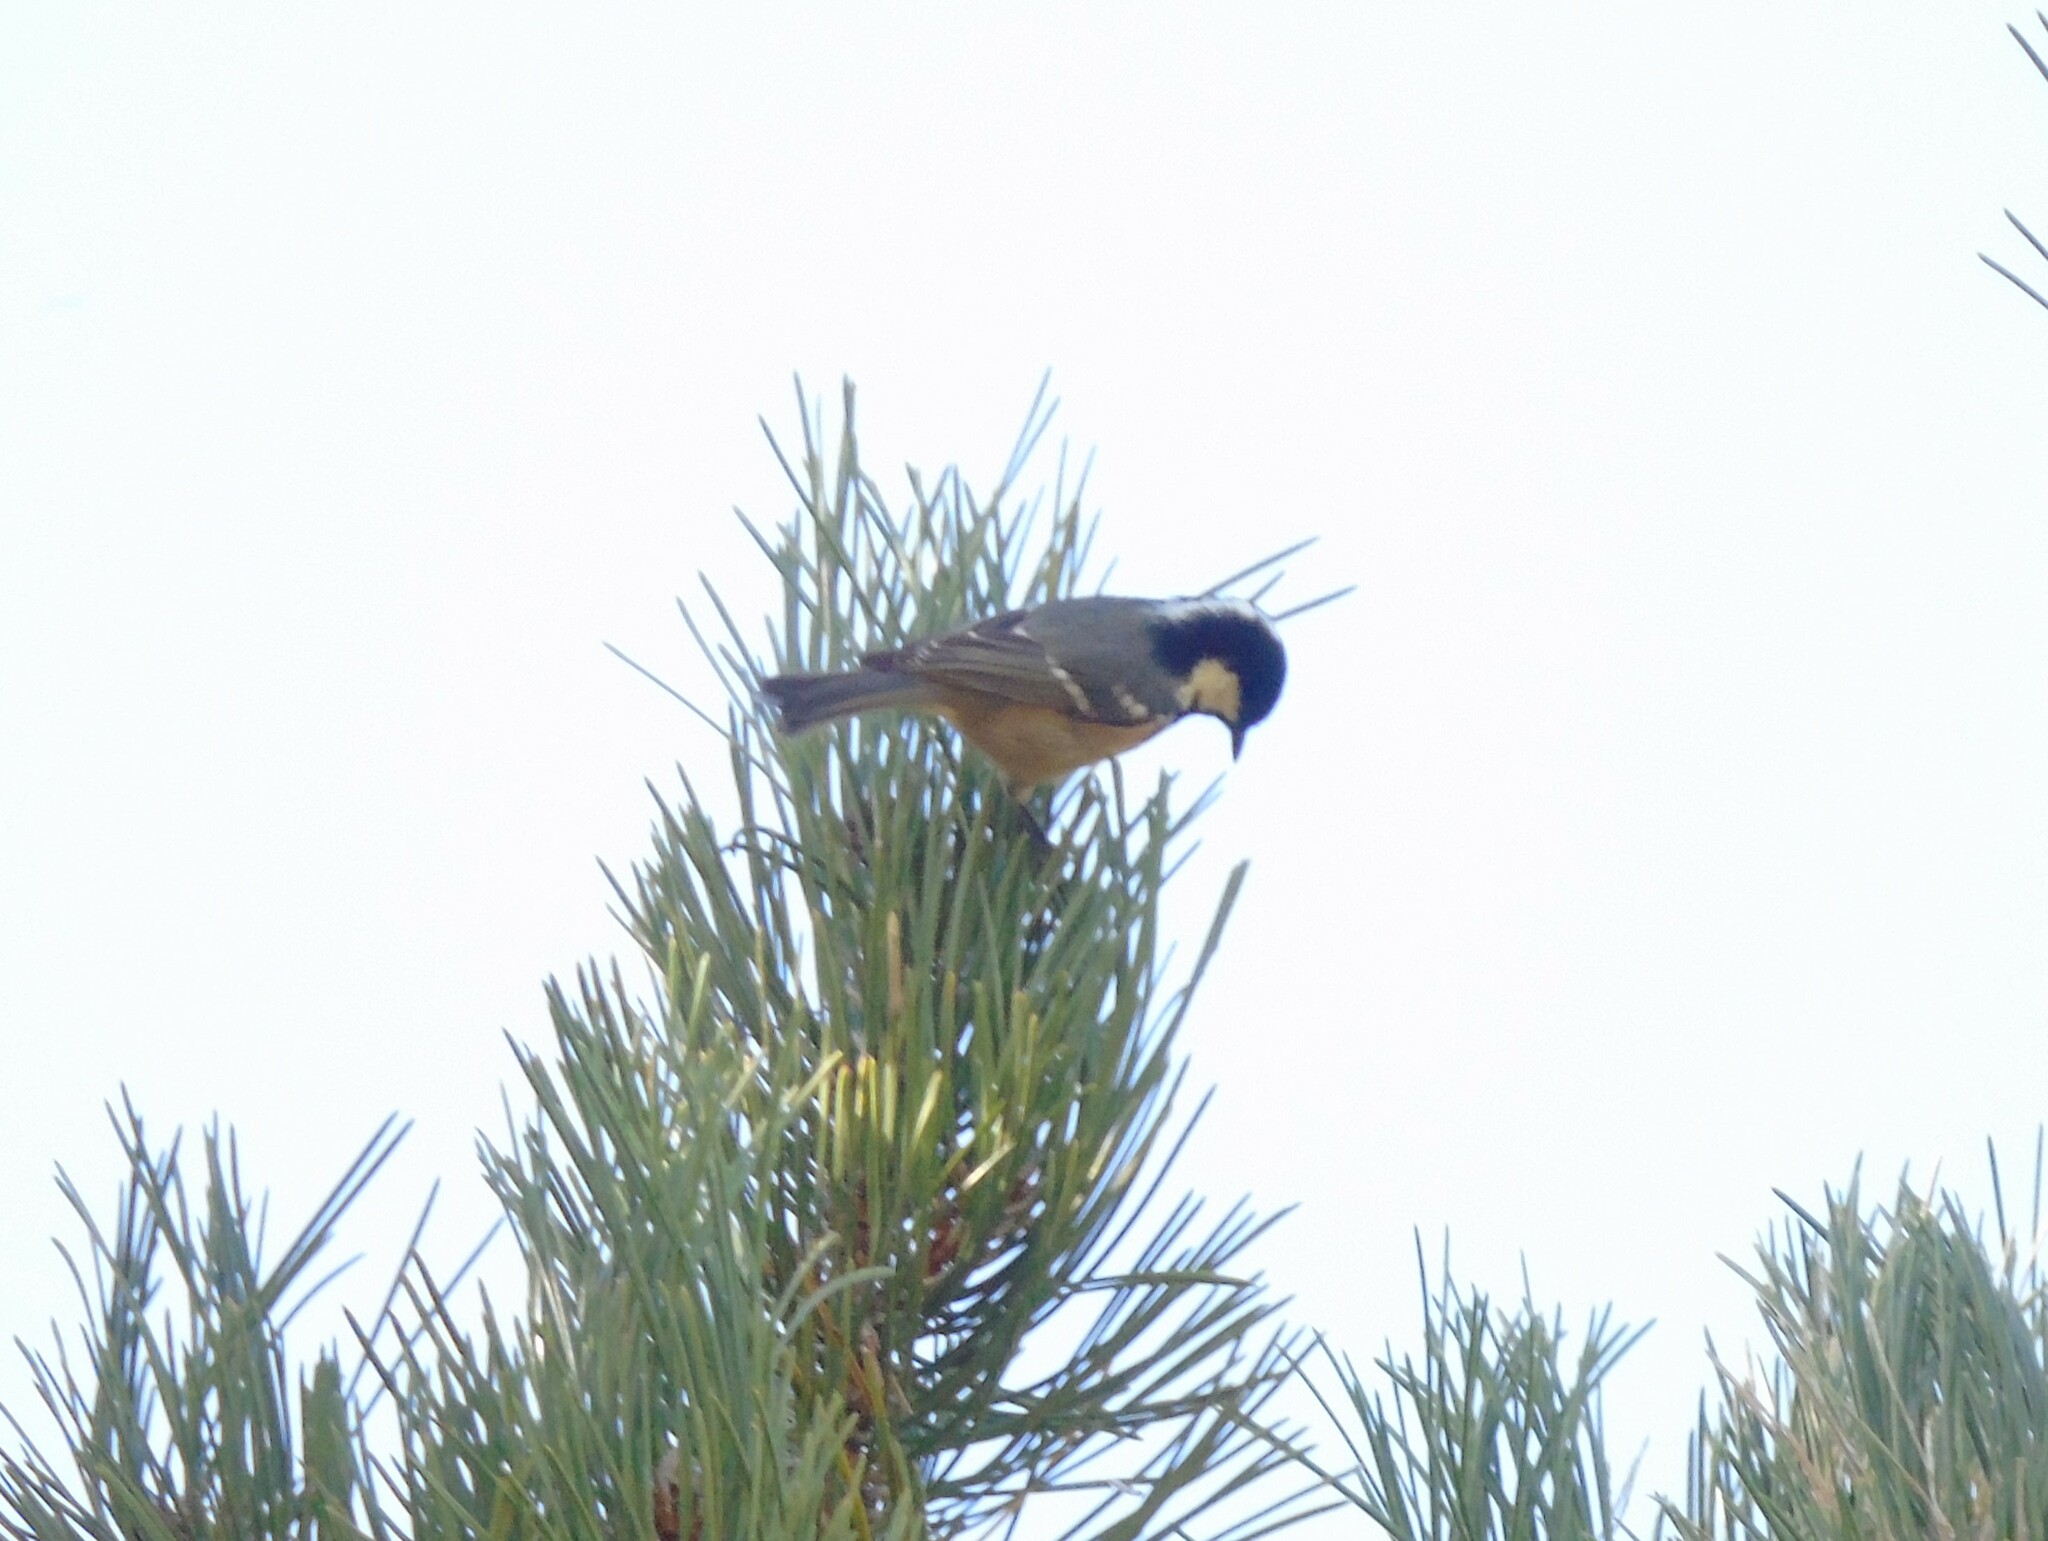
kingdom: Animalia
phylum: Chordata
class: Aves
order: Passeriformes
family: Paridae
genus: Periparus
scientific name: Periparus ater
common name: Coal tit
